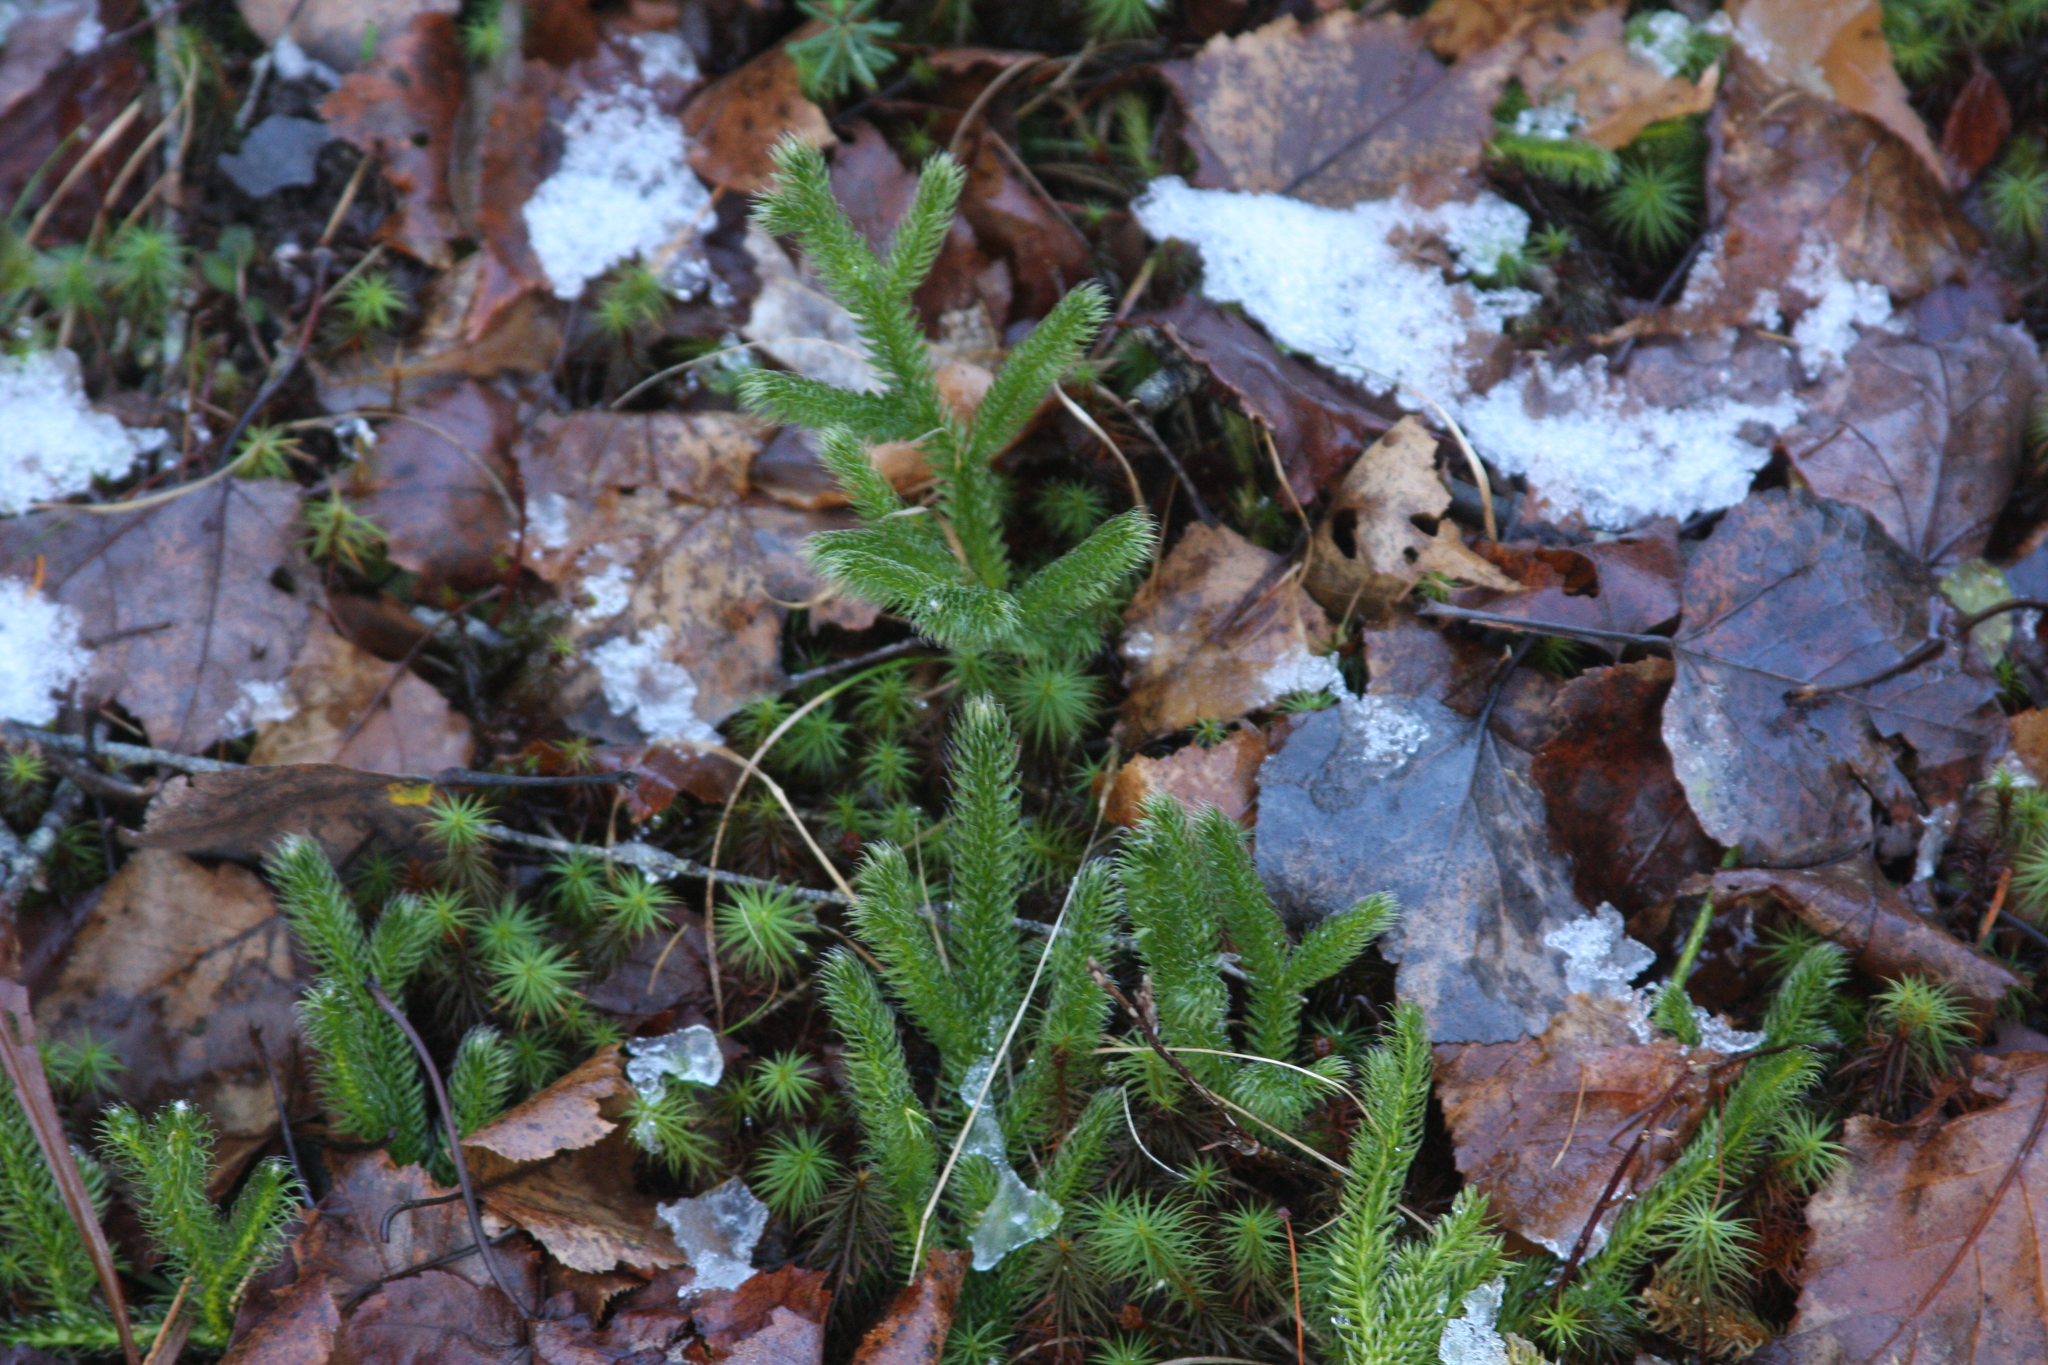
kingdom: Plantae
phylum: Tracheophyta
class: Lycopodiopsida
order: Lycopodiales
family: Lycopodiaceae
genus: Lycopodium
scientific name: Lycopodium clavatum
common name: Stag's-horn clubmoss
